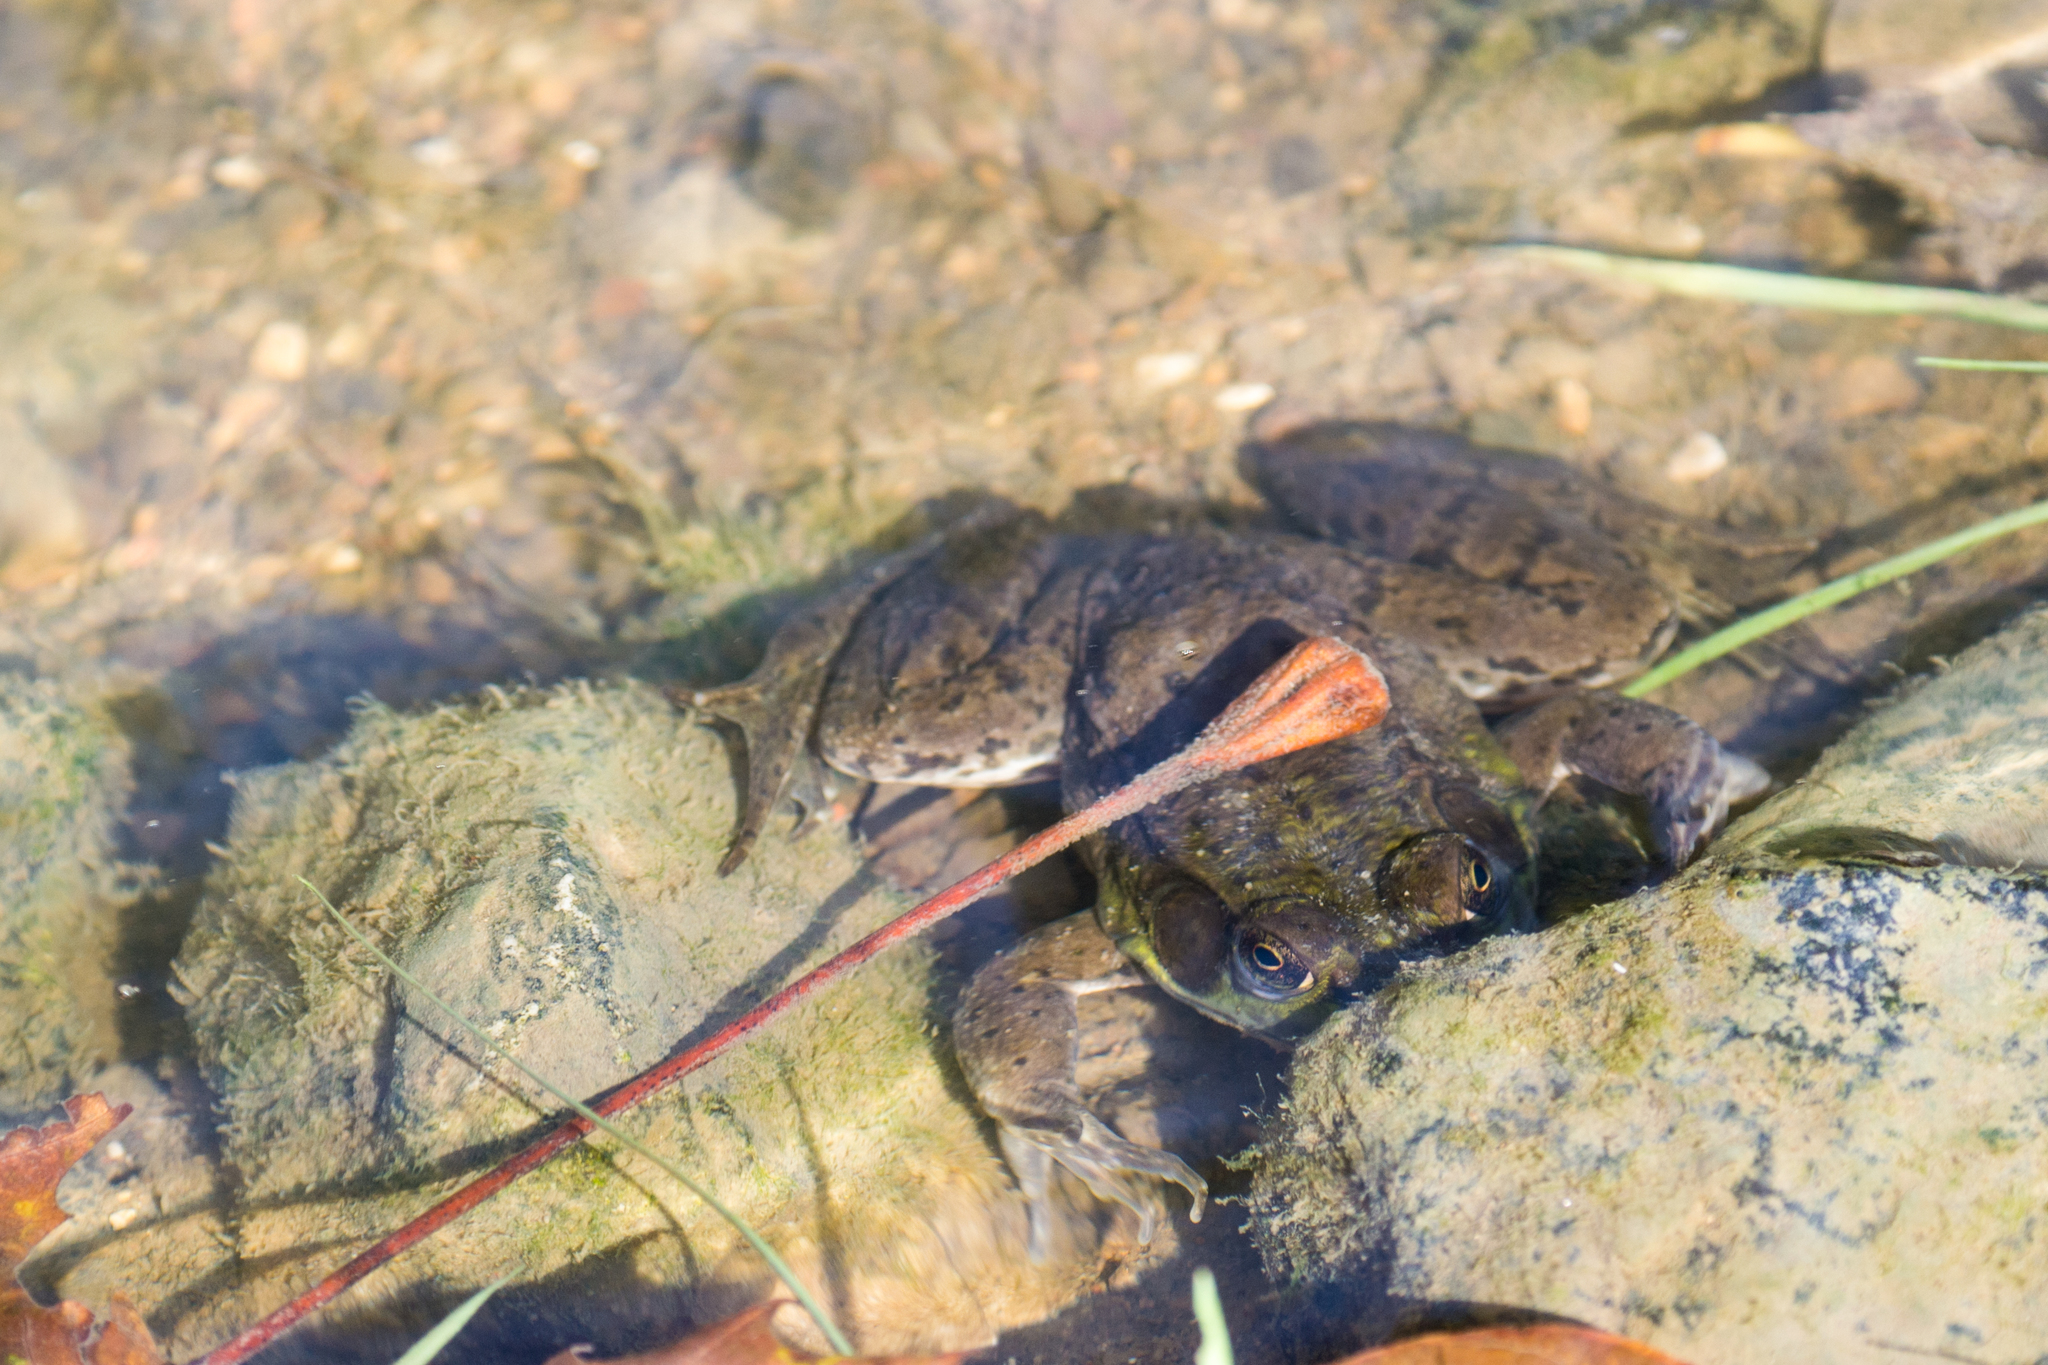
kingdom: Animalia
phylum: Chordata
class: Amphibia
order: Anura
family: Ranidae
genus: Lithobates
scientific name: Lithobates clamitans
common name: Green frog
